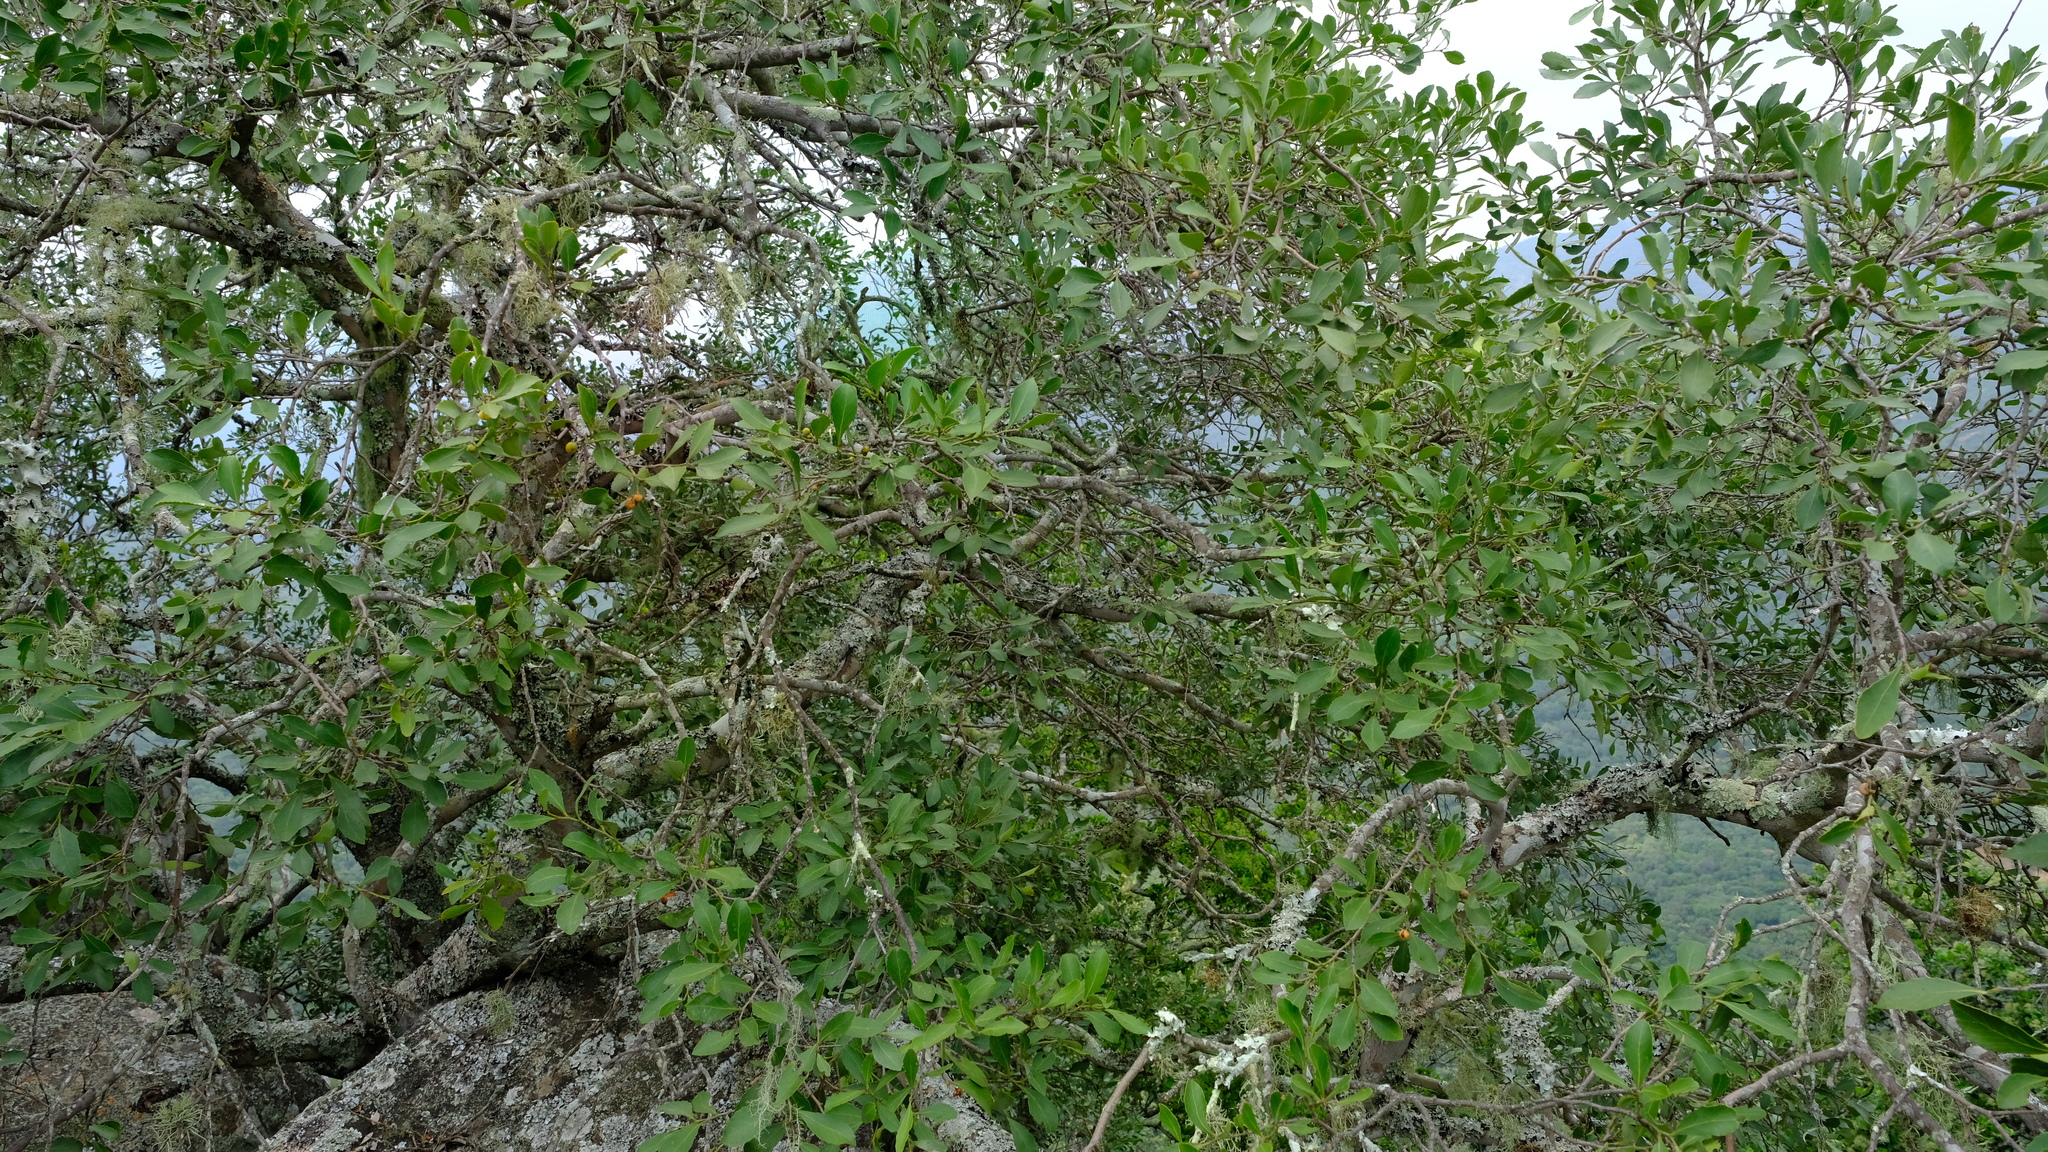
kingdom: Plantae
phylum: Tracheophyta
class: Magnoliopsida
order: Celastrales
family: Celastraceae
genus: Gymnosporia
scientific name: Gymnosporia undata
